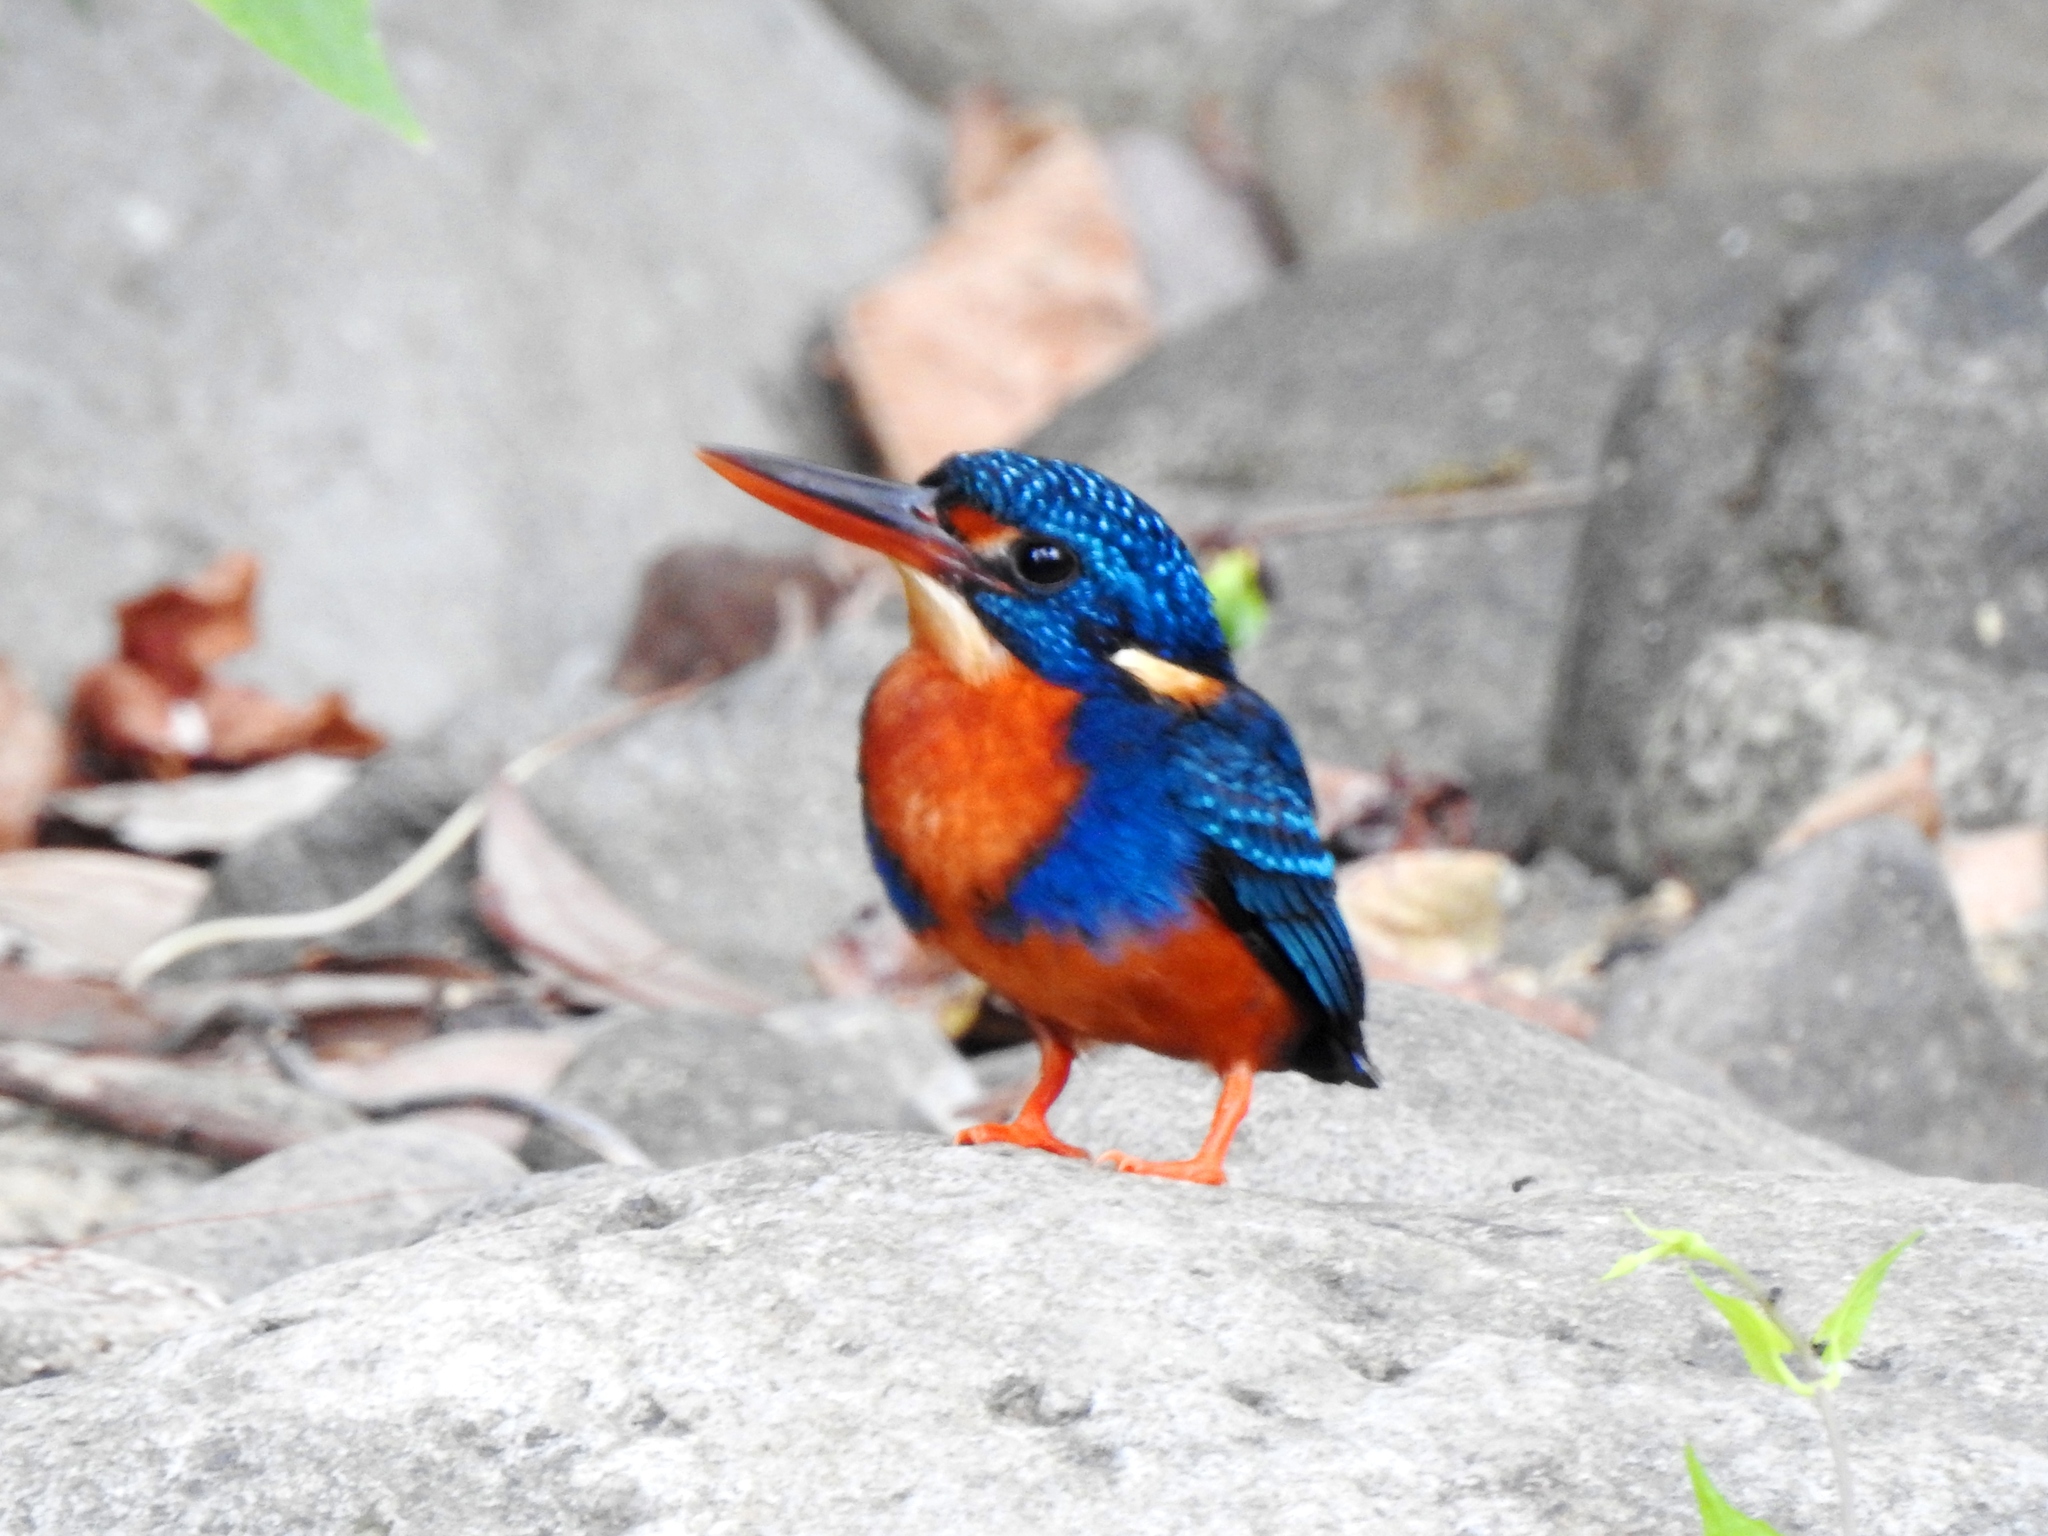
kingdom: Animalia
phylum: Chordata
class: Aves
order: Coraciiformes
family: Alcedinidae
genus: Ceyx
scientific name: Ceyx cyanopectus
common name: Indigo-banded kingfisher
